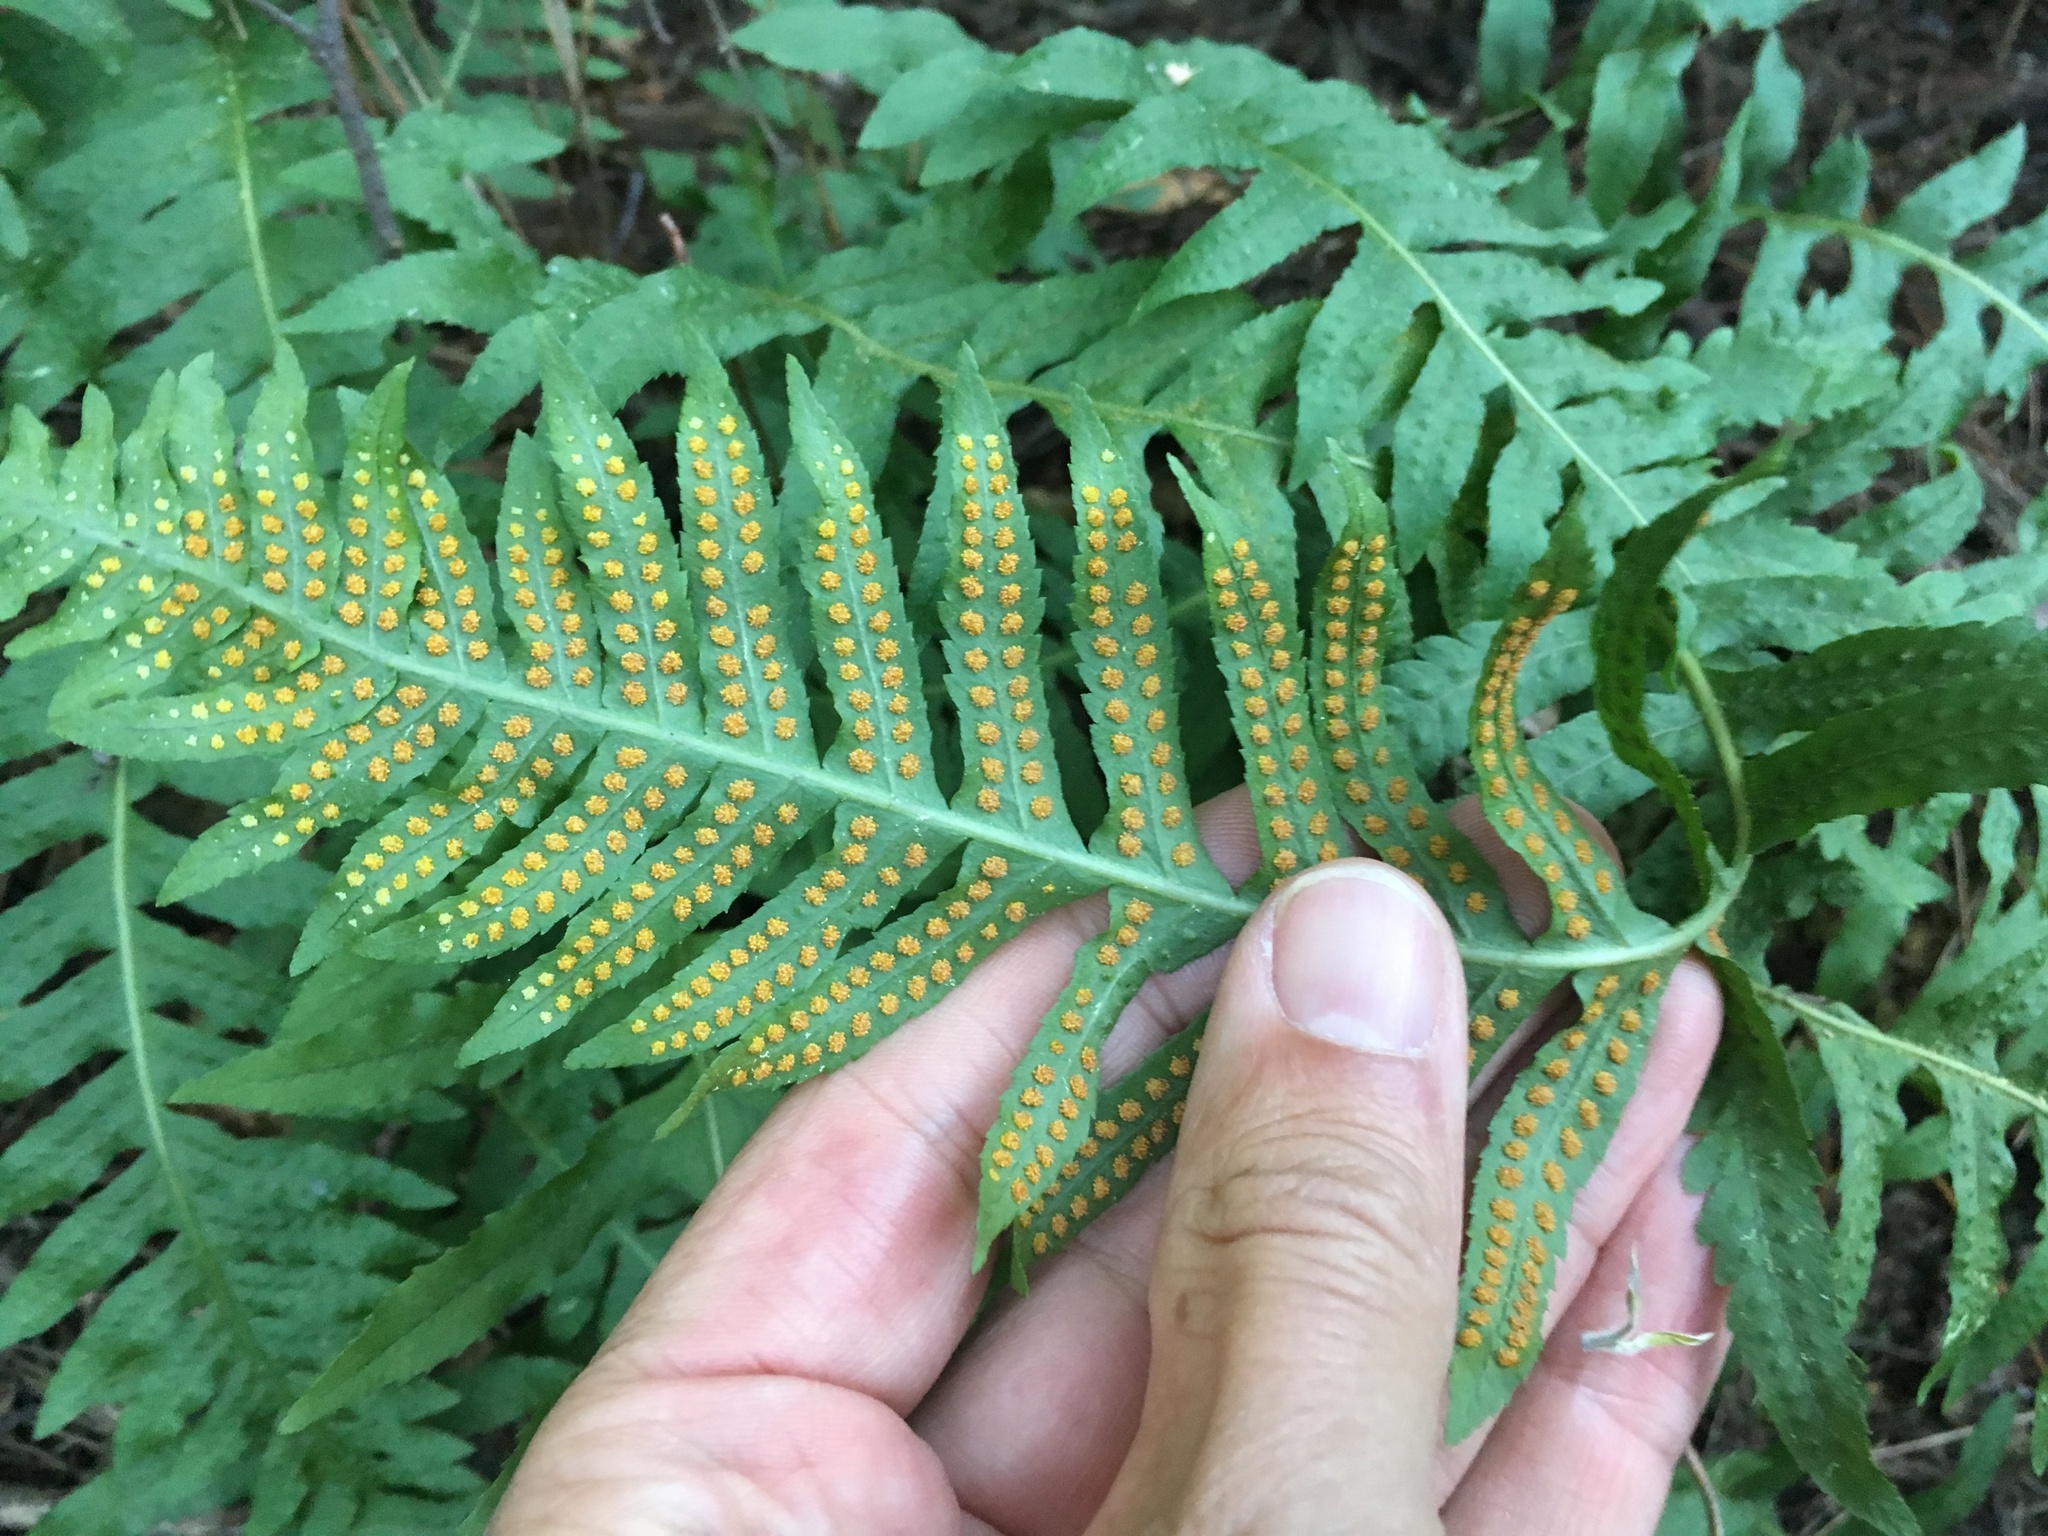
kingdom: Plantae
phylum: Tracheophyta
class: Polypodiopsida
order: Polypodiales
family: Polypodiaceae
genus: Polypodium
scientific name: Polypodium vulgare
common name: Common polypody
